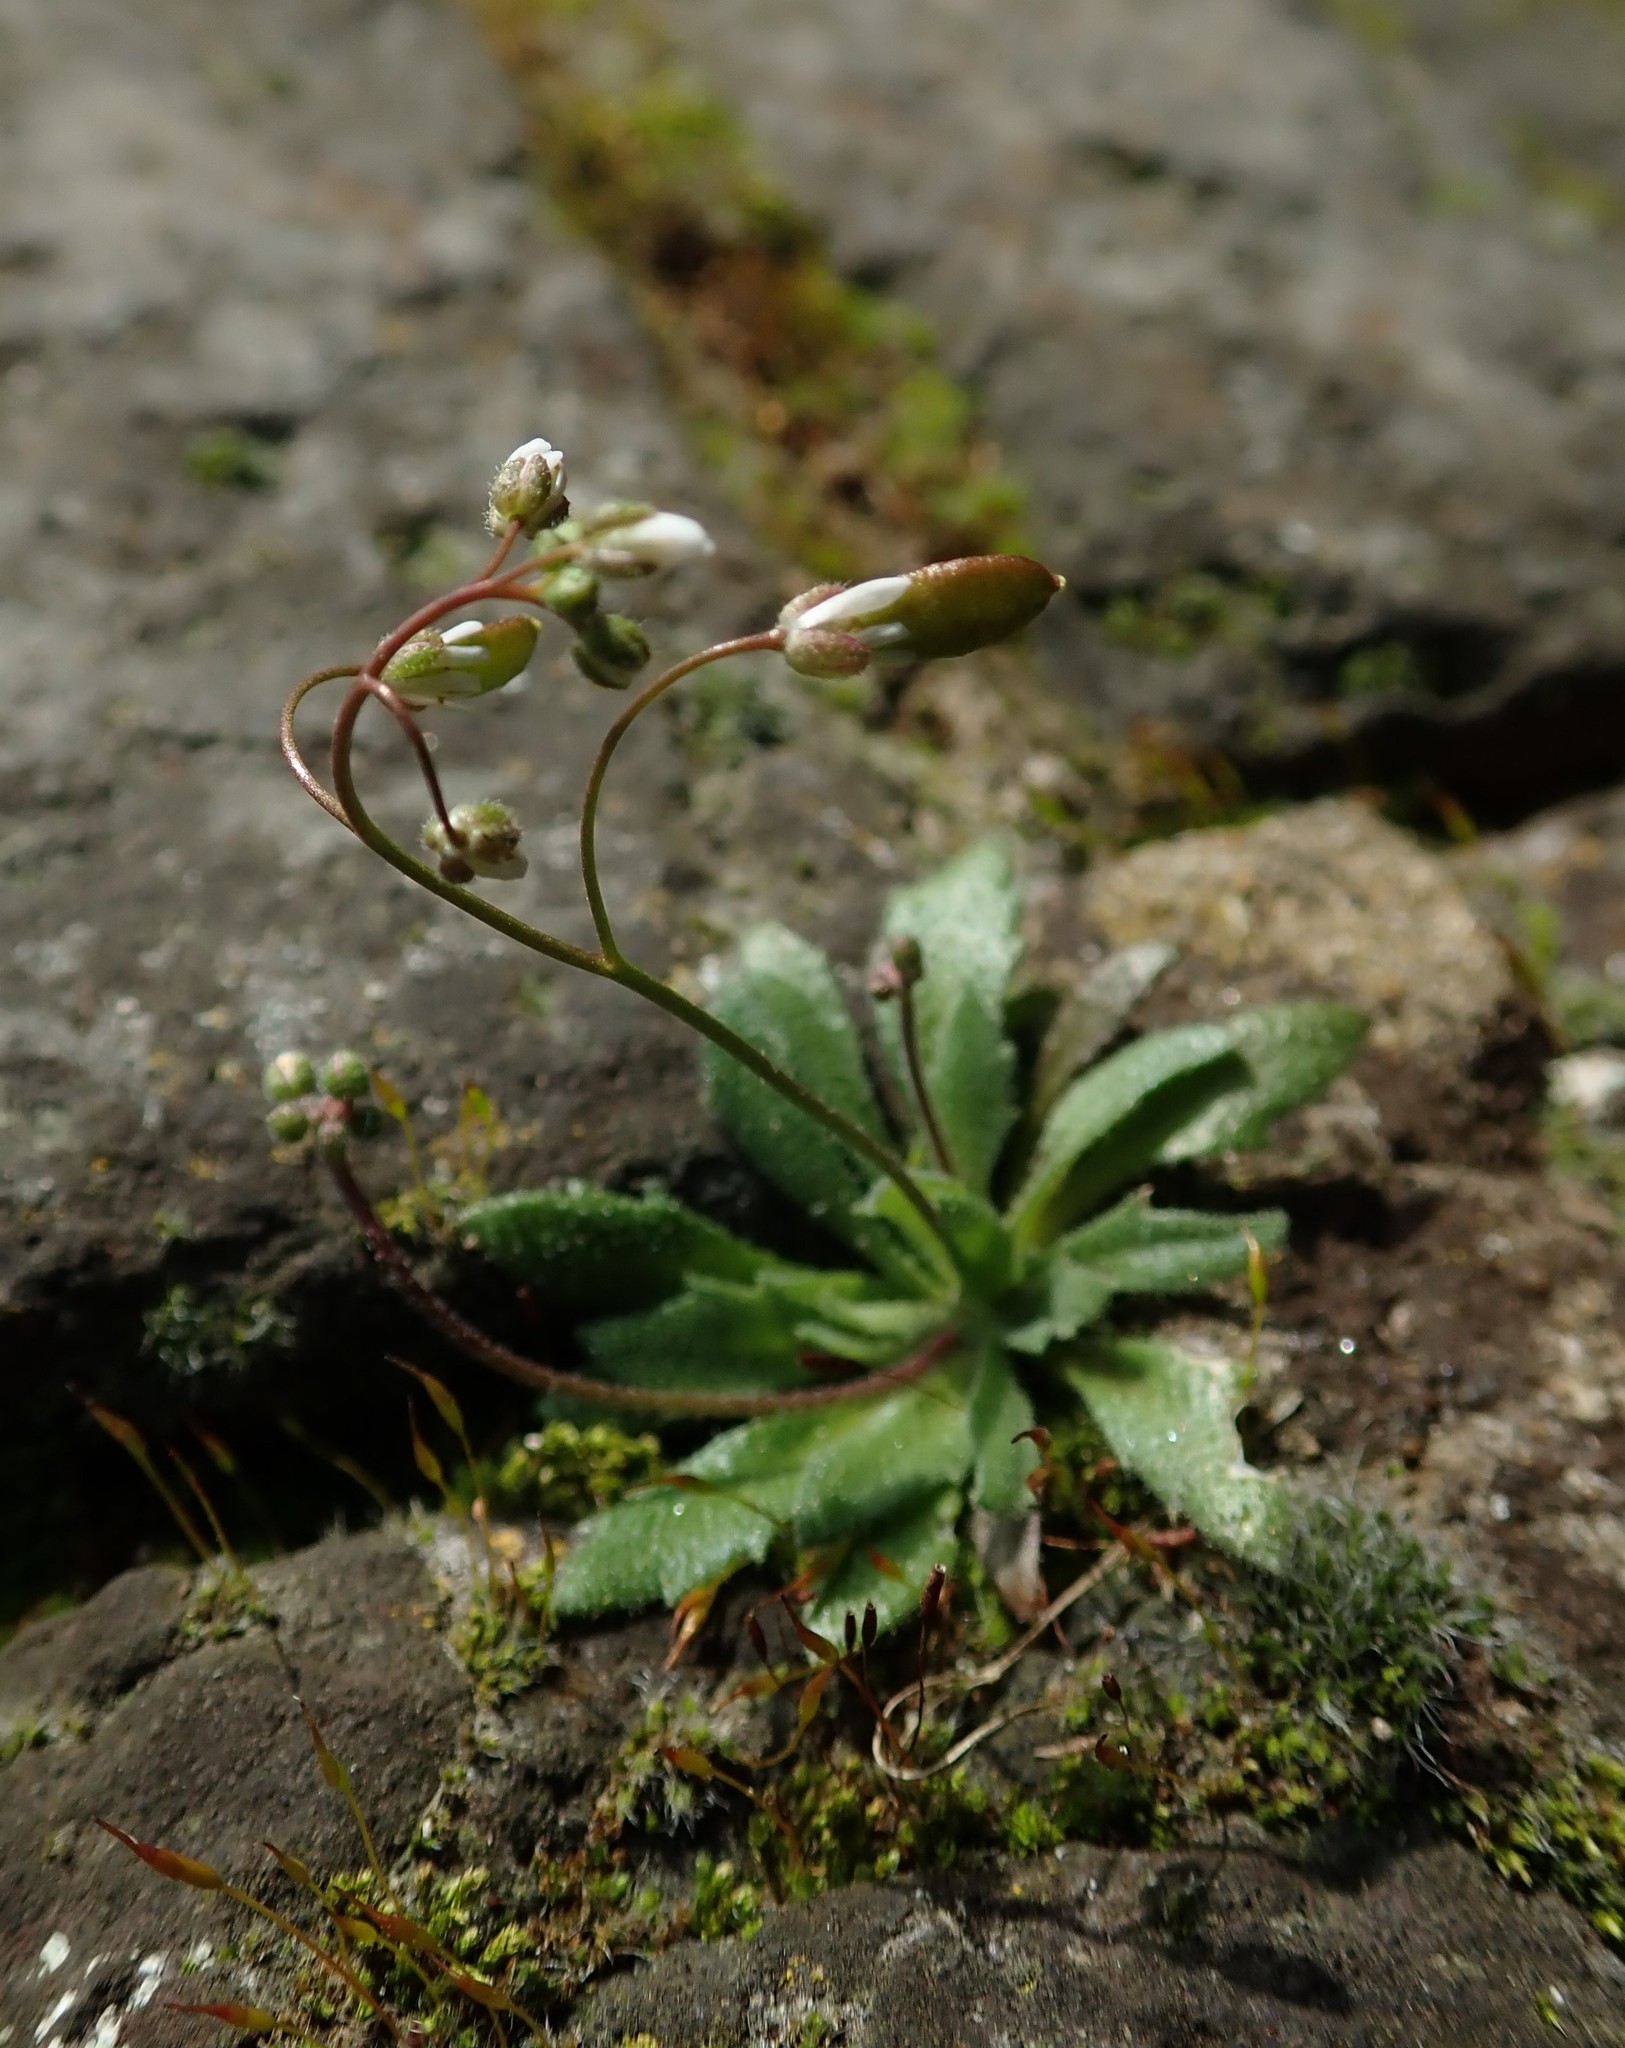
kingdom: Plantae
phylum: Tracheophyta
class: Magnoliopsida
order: Brassicales
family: Brassicaceae
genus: Draba
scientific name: Draba verna
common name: Spring draba
